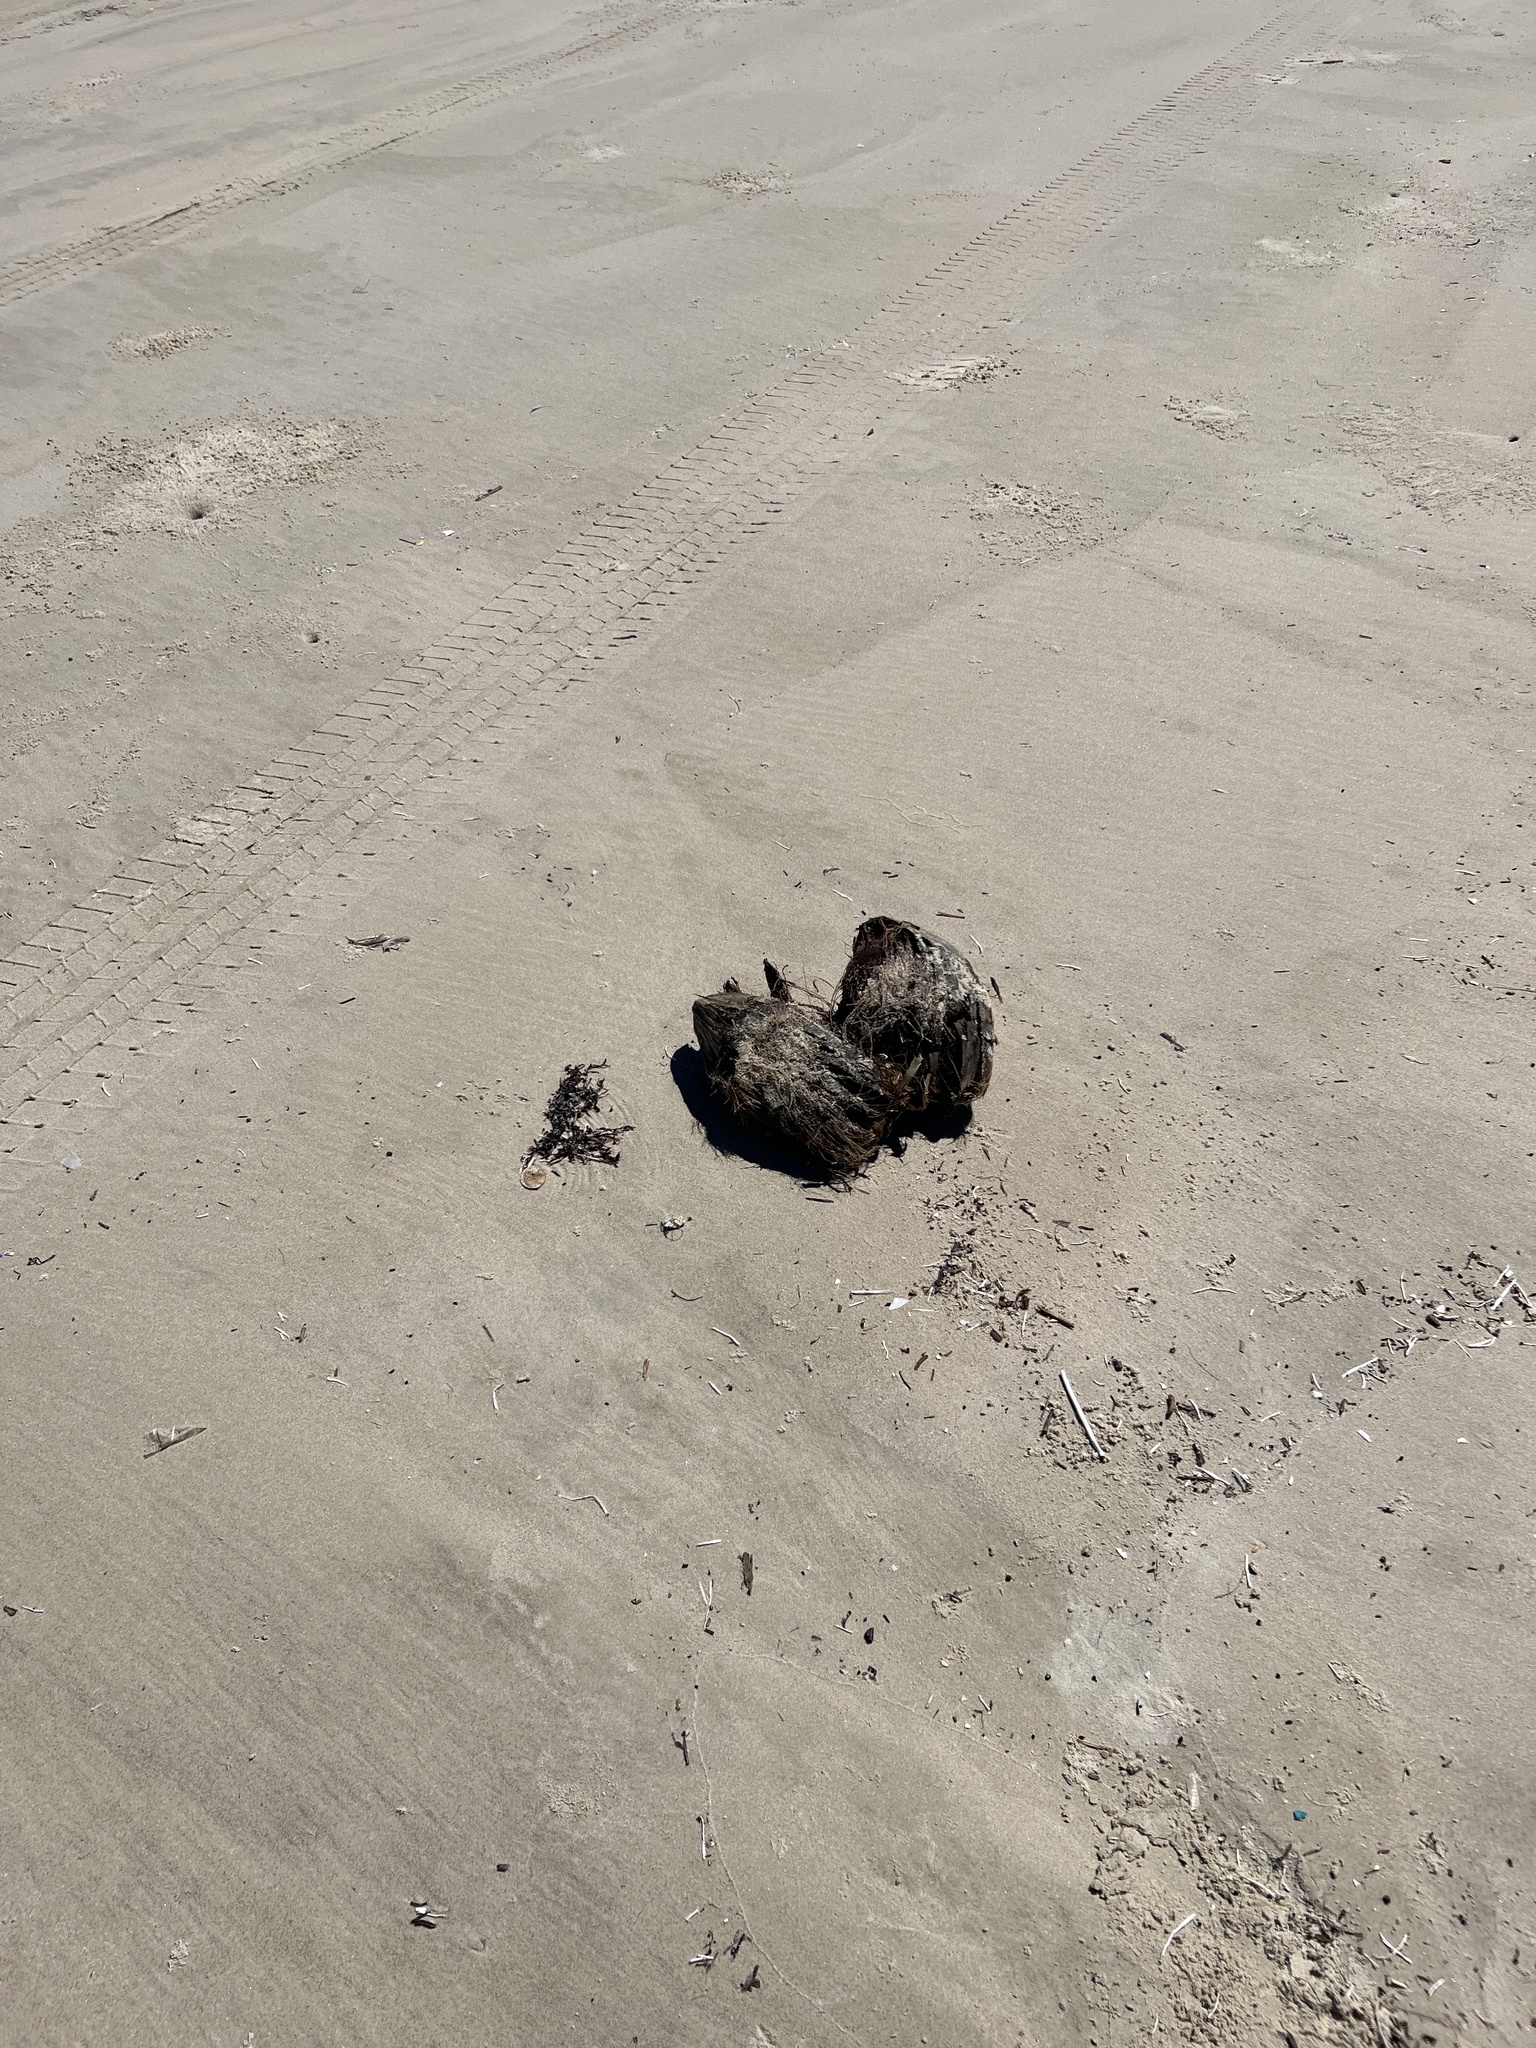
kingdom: Plantae
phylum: Tracheophyta
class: Liliopsida
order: Arecales
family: Arecaceae
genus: Cocos
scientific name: Cocos nucifera
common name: Coconut palm
